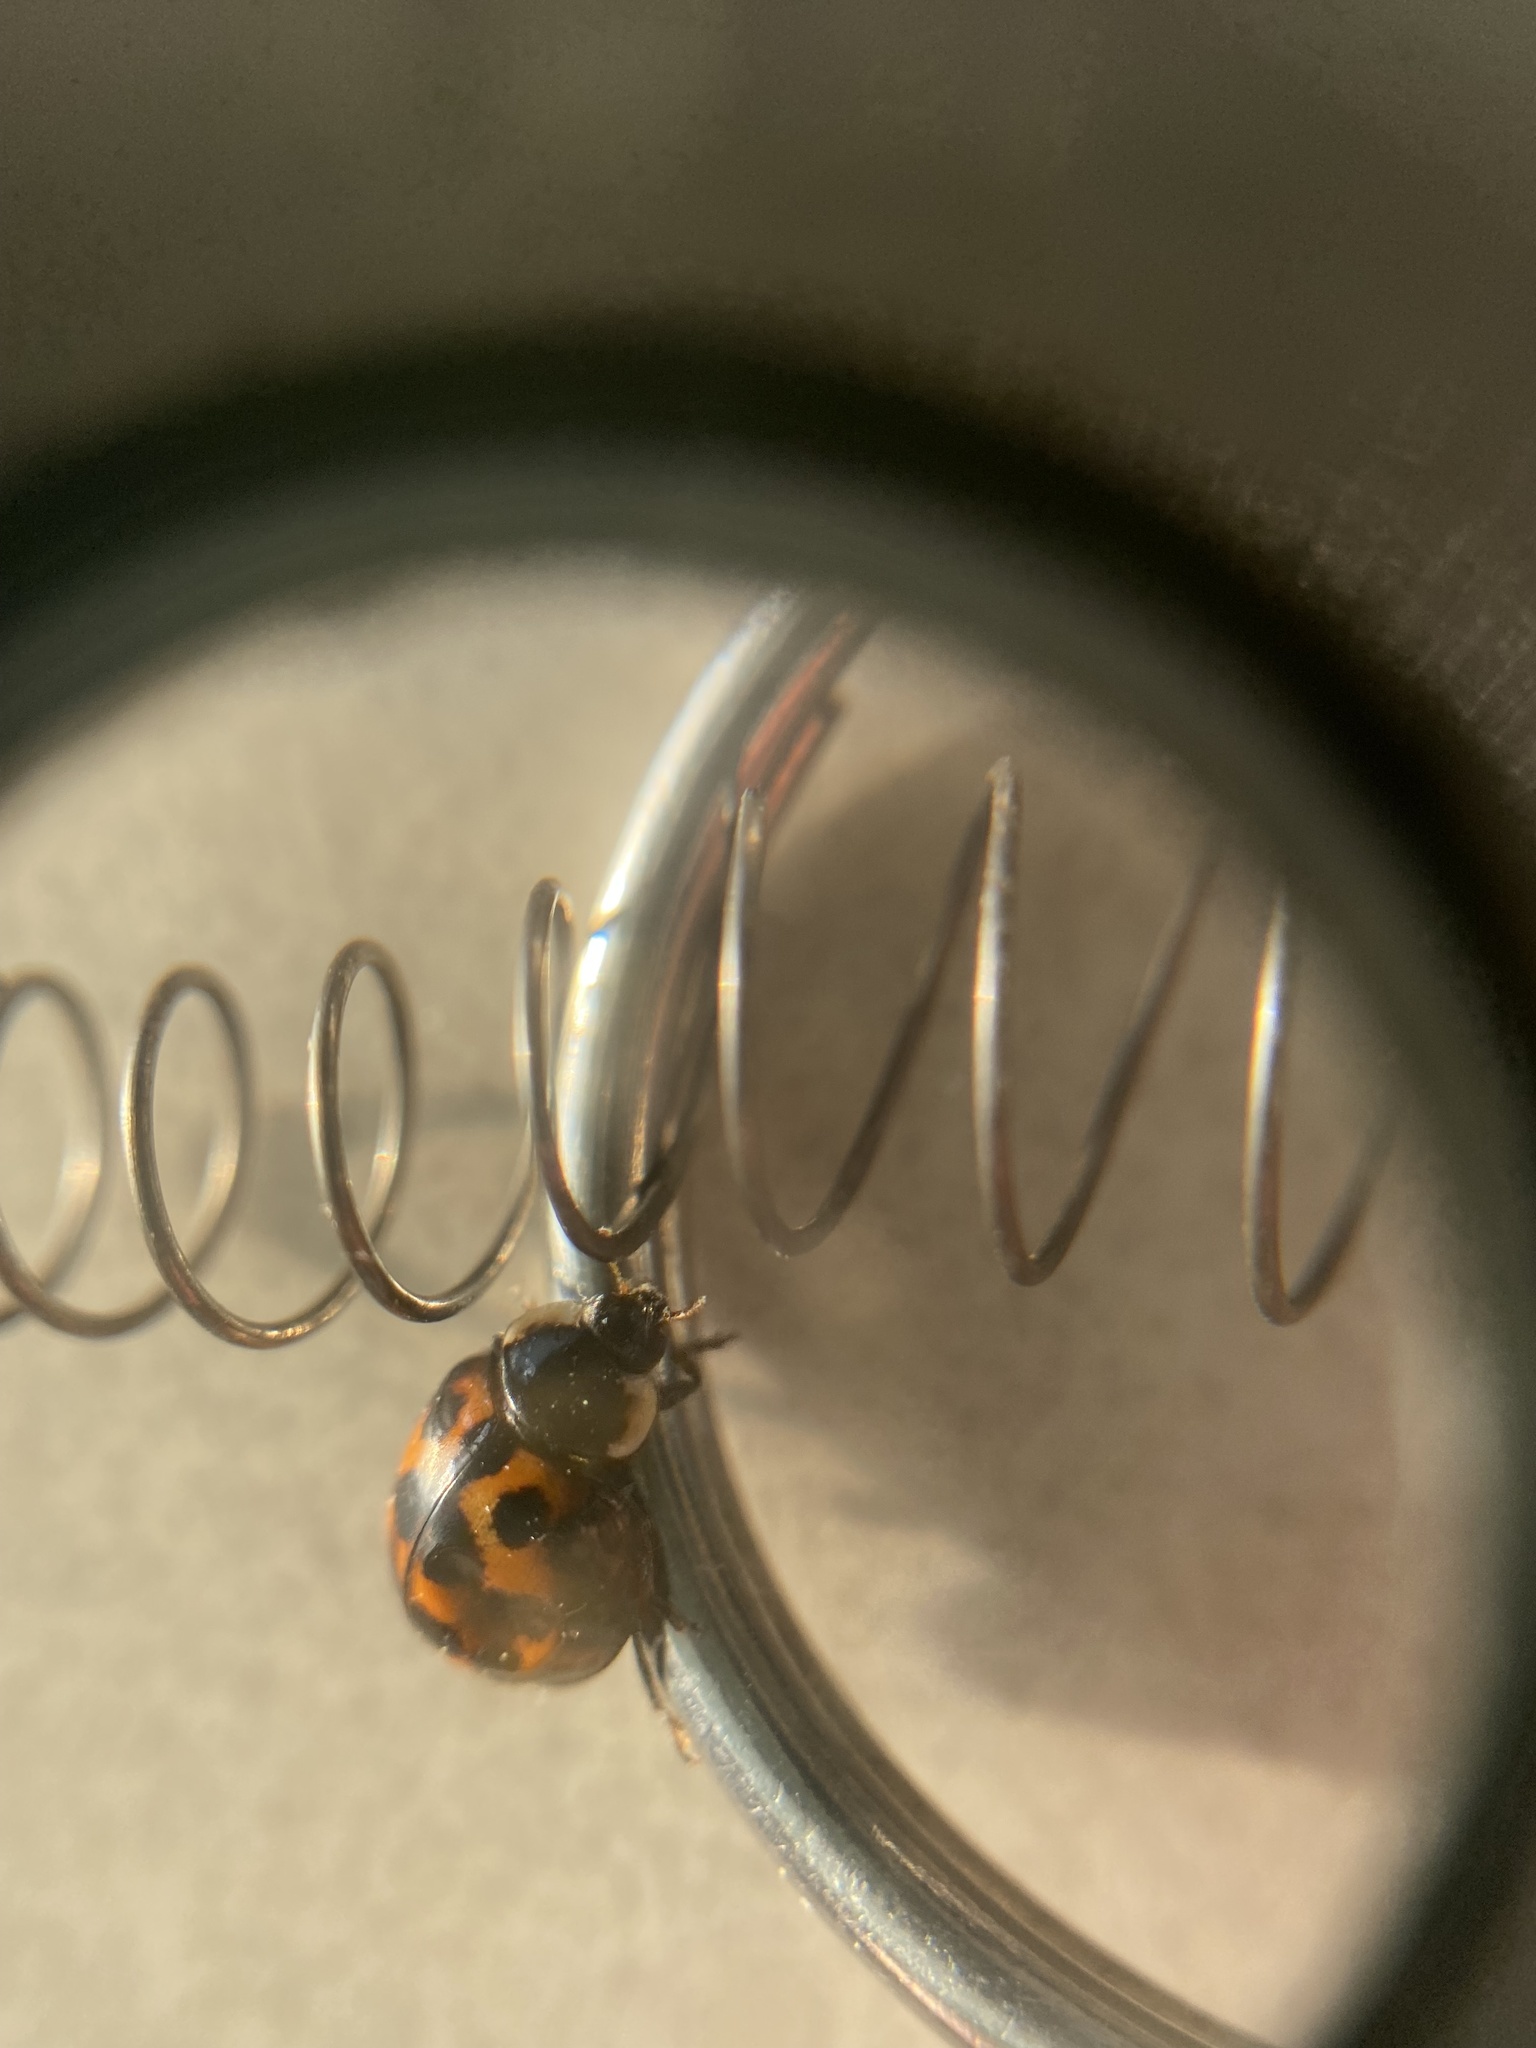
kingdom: Animalia
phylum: Arthropoda
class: Insecta
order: Coleoptera
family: Coccinellidae
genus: Harmonia
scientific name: Harmonia axyridis
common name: Harlequin ladybird
